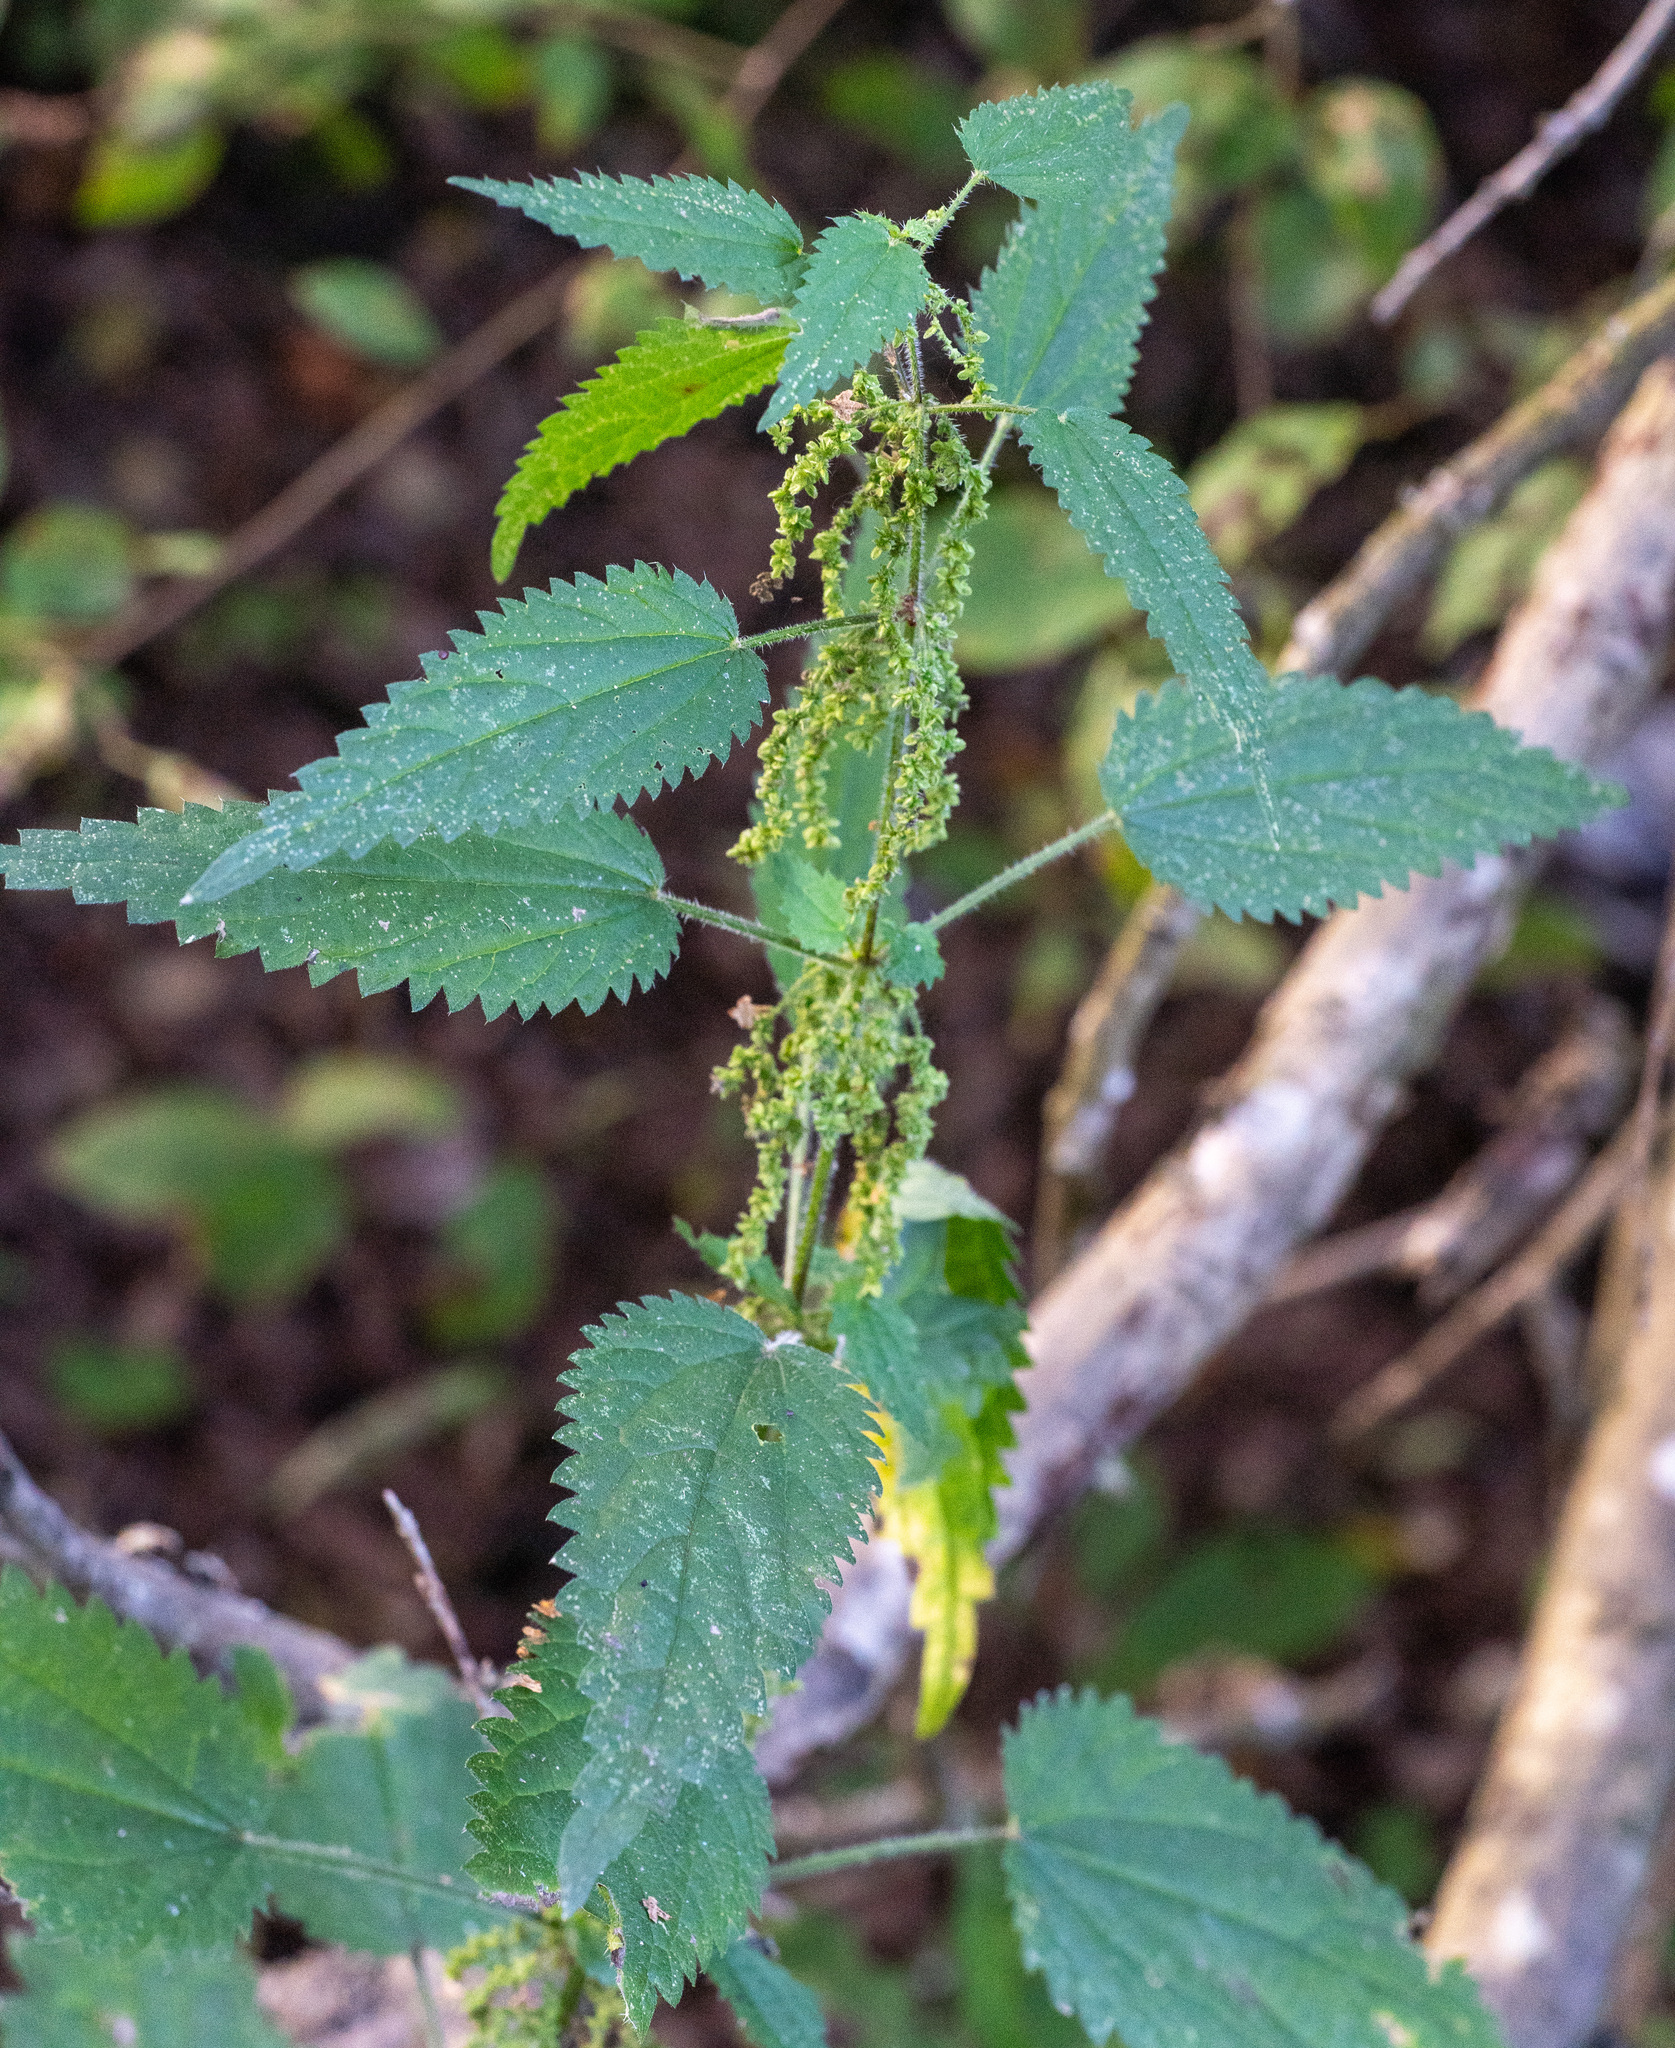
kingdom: Plantae
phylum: Tracheophyta
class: Magnoliopsida
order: Rosales
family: Urticaceae
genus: Urtica
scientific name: Urtica dioica
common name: Common nettle
